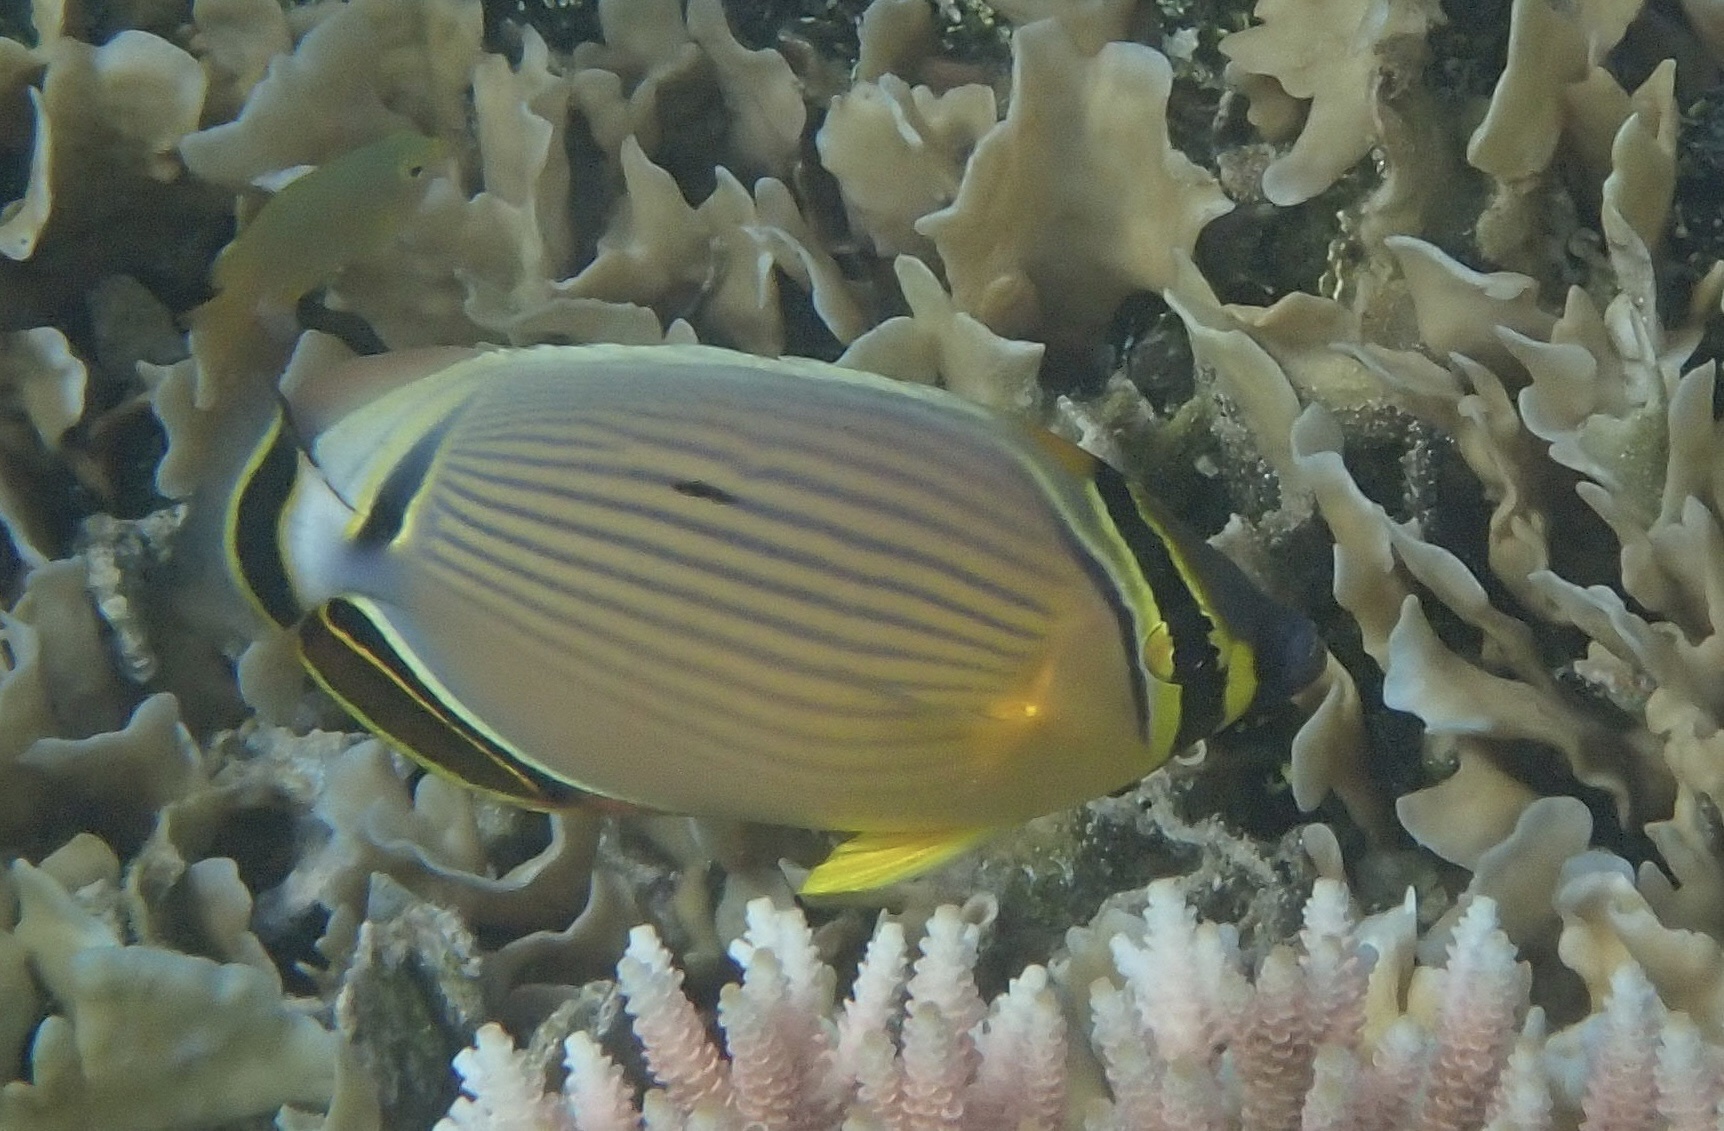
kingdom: Animalia
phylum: Chordata
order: Perciformes
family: Chaetodontidae
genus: Chaetodon
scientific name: Chaetodon lunulatus
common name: Redfin butterflyfish
